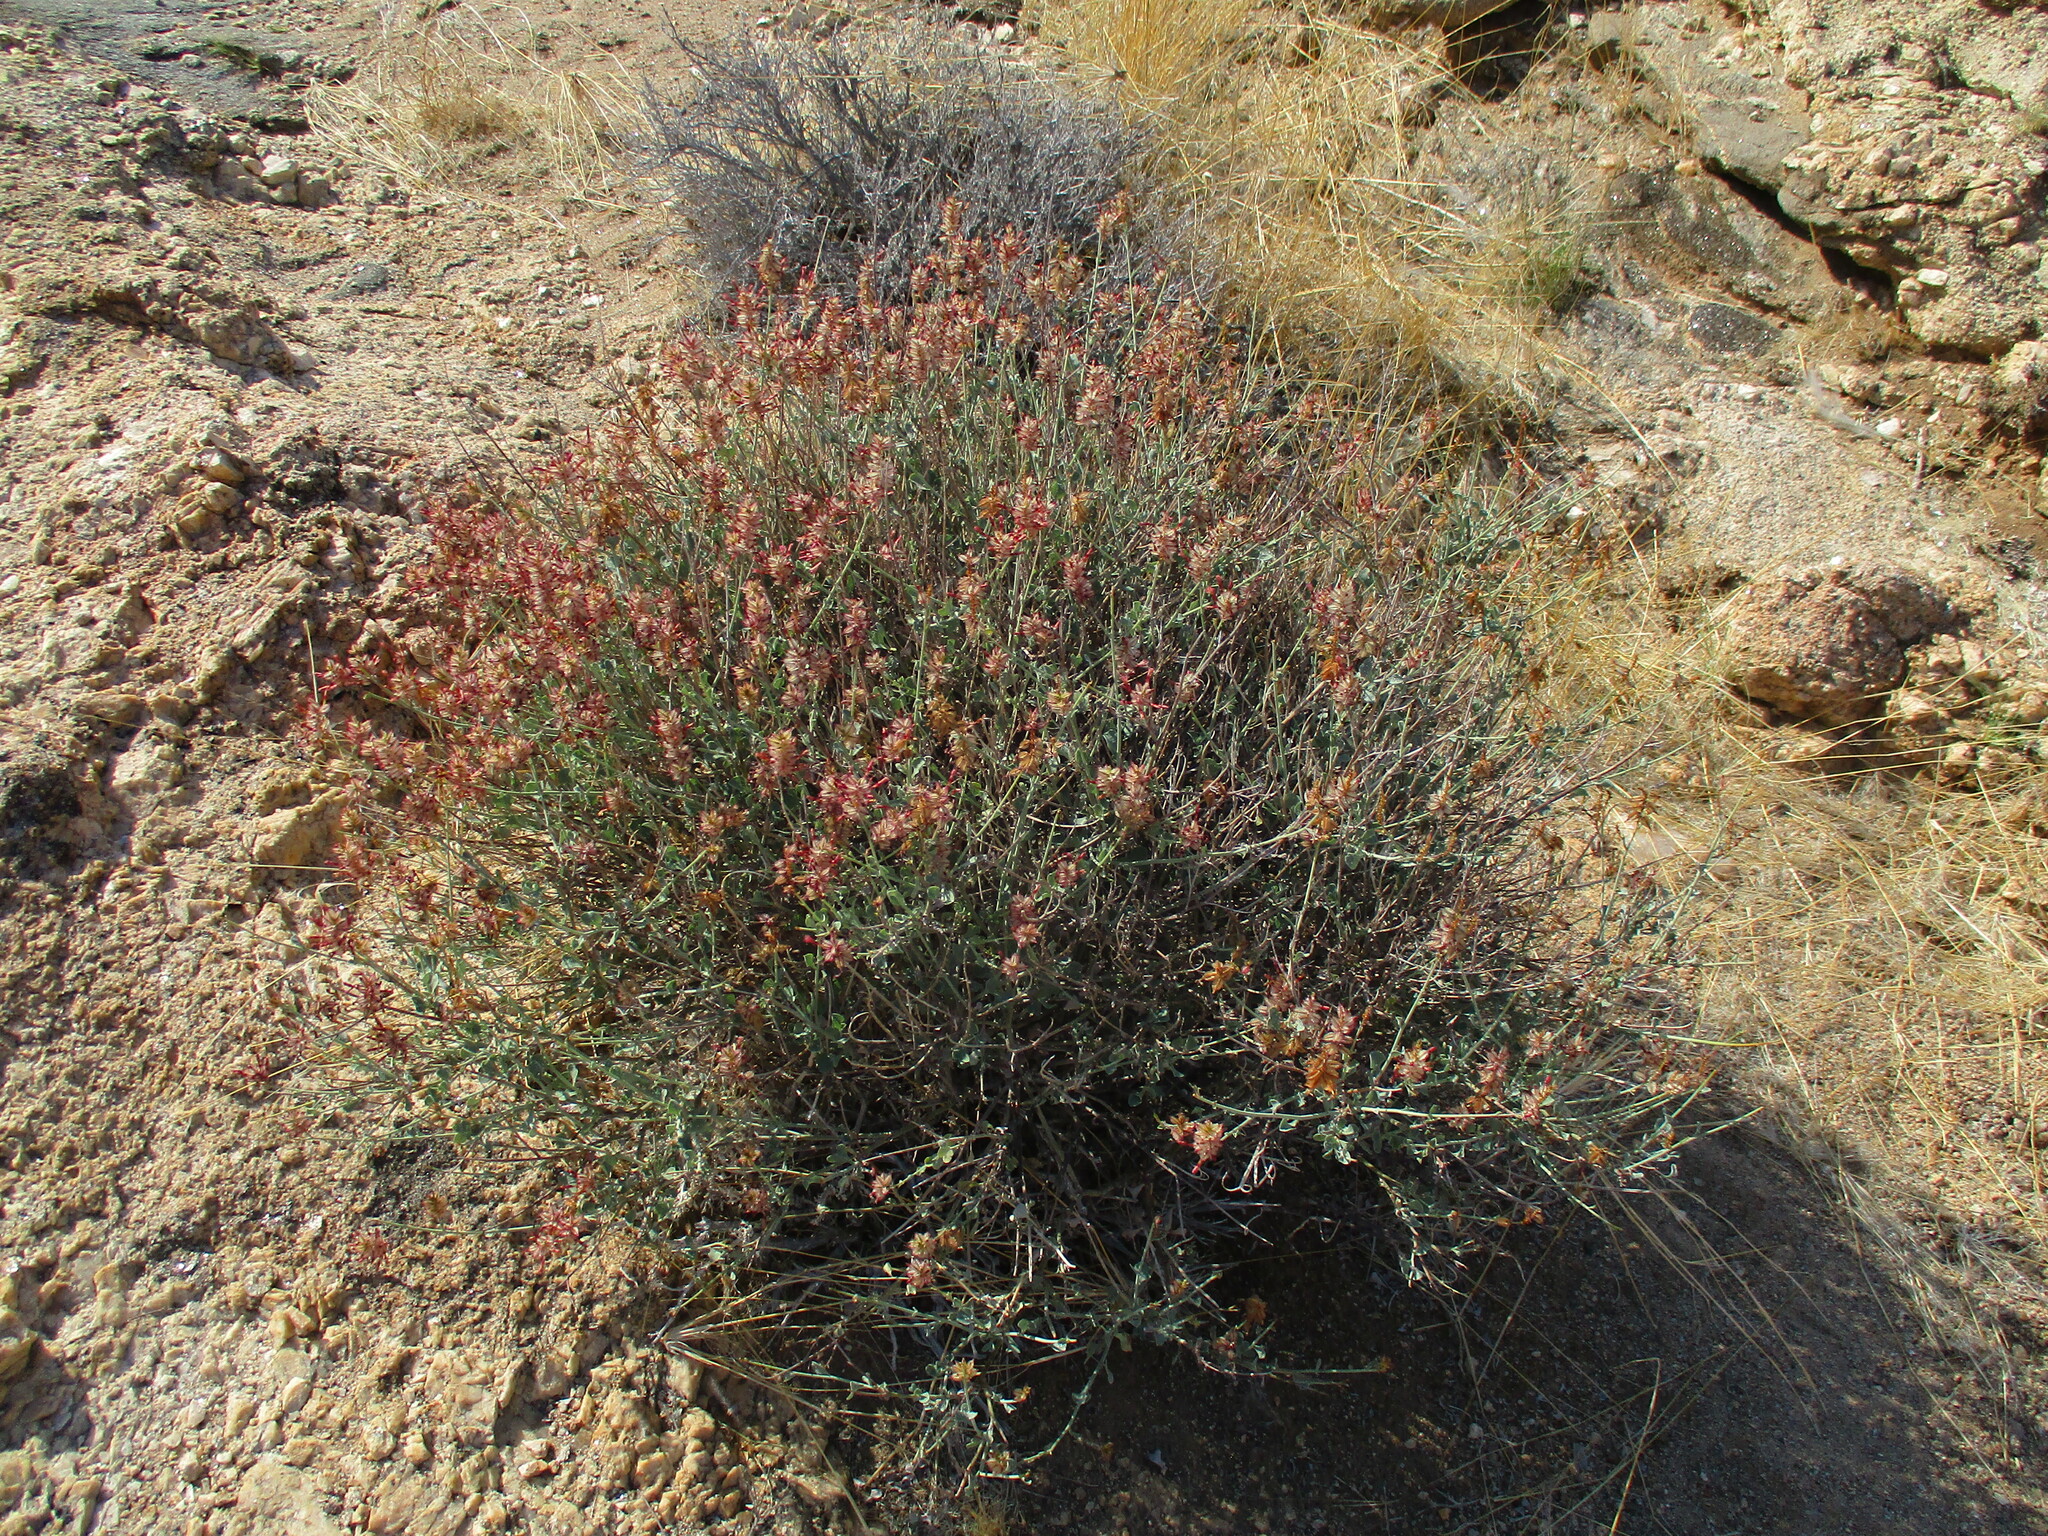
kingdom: Plantae
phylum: Tracheophyta
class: Magnoliopsida
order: Caryophyllales
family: Plumbaginaceae
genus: Dyerophytum
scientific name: Dyerophytum africanum
